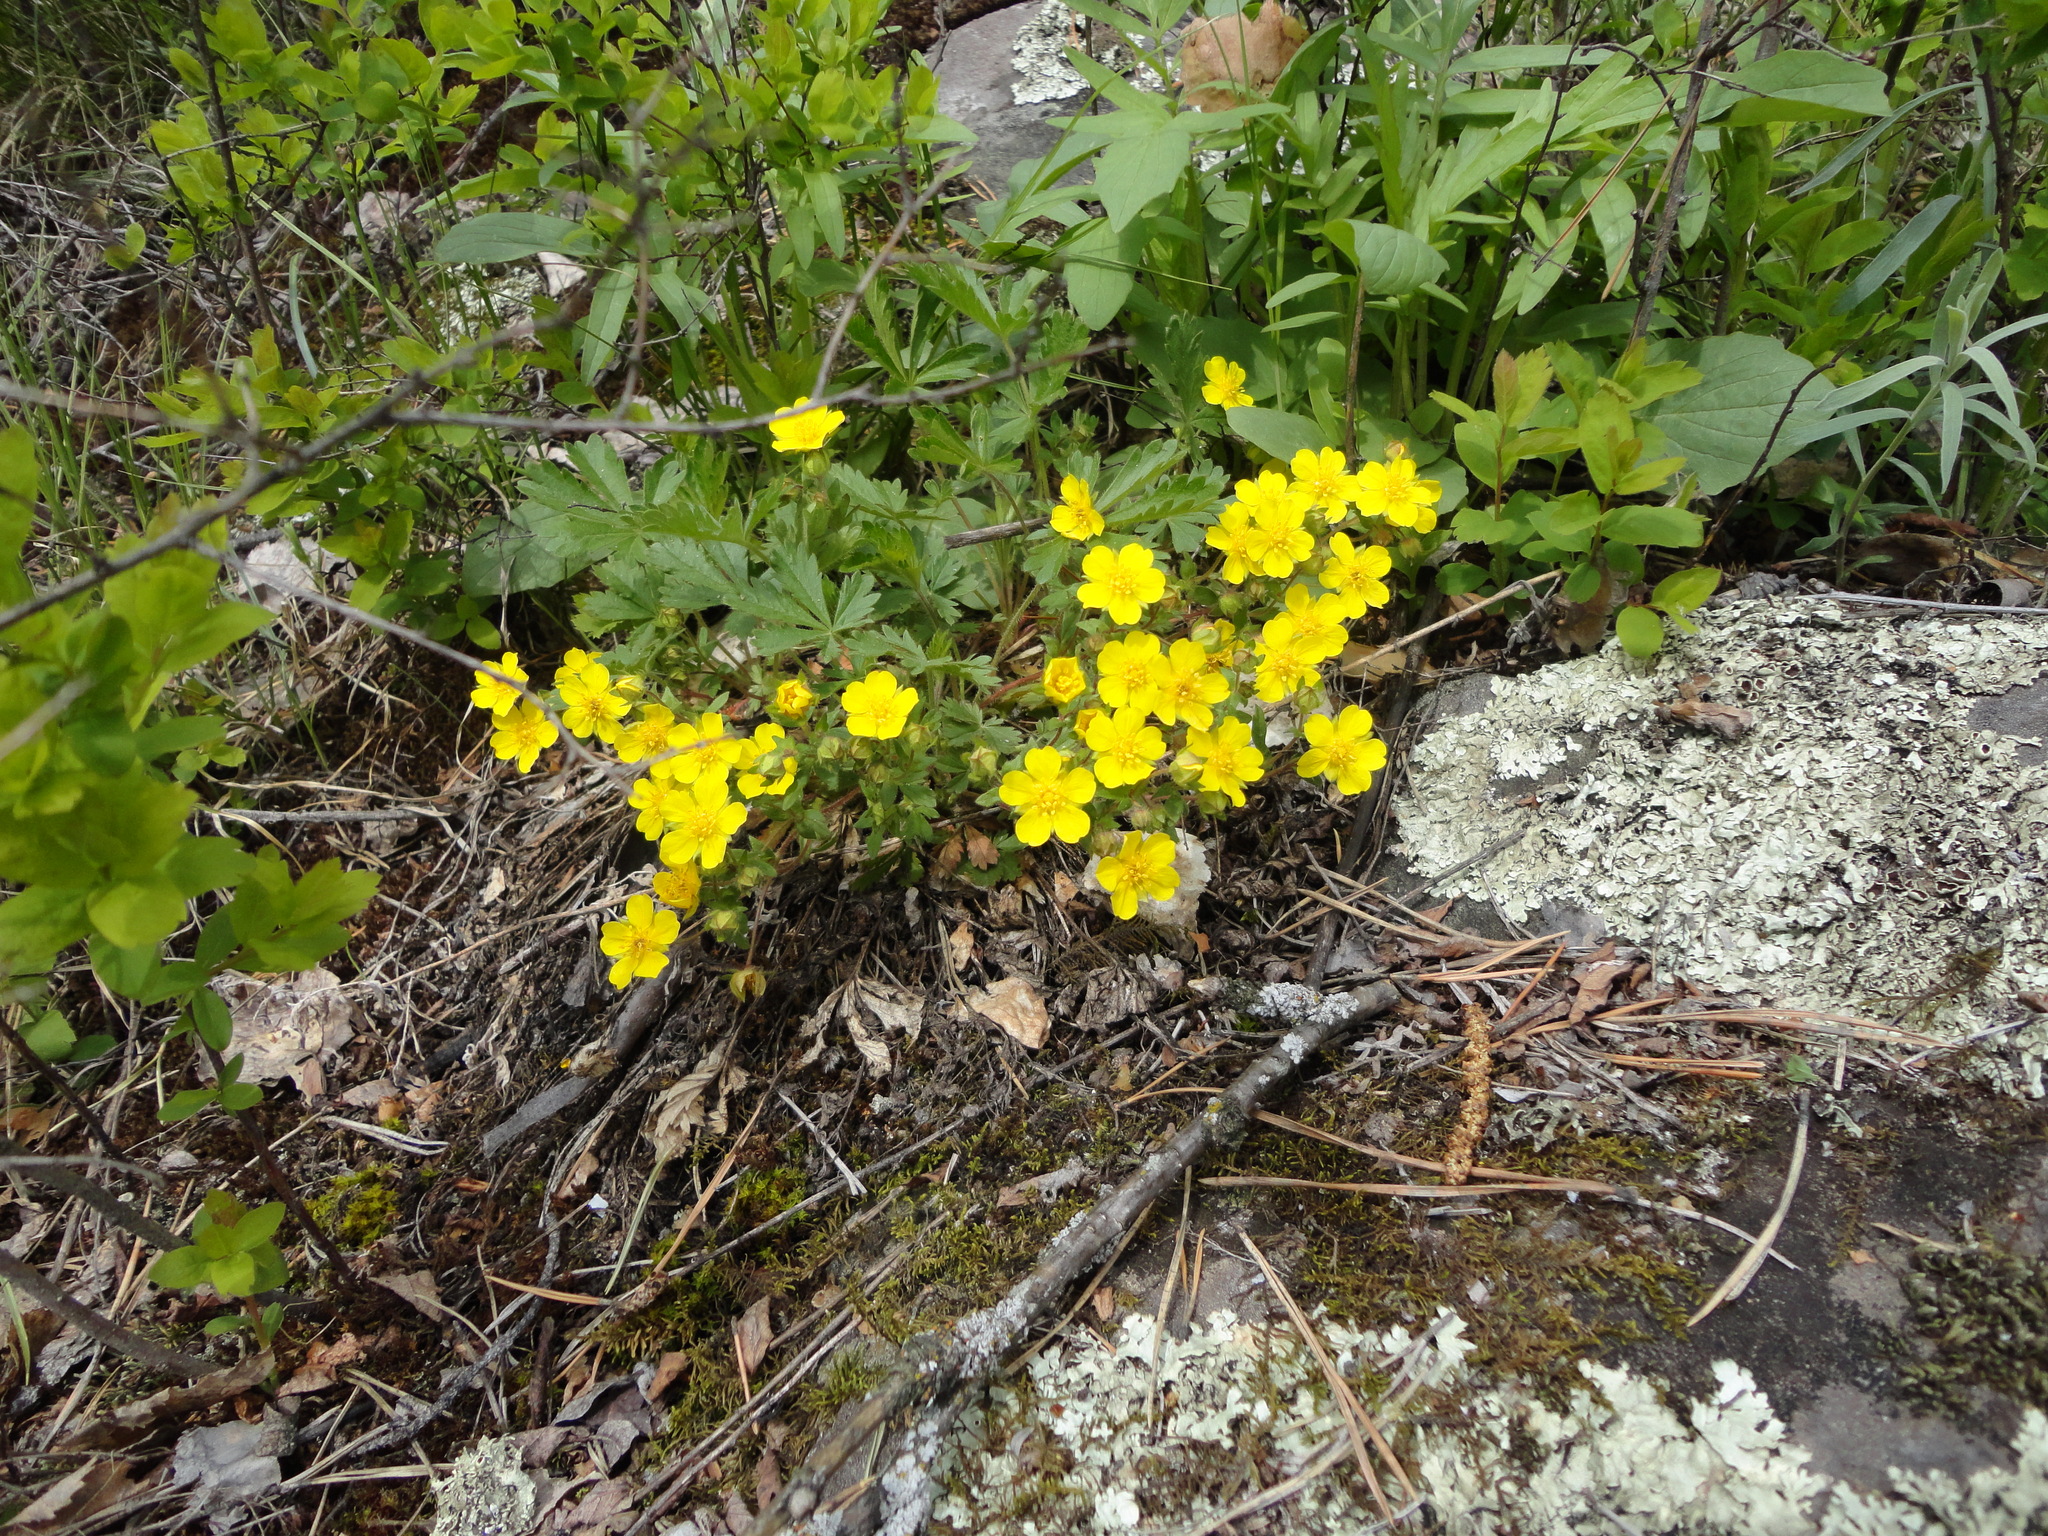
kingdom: Plantae
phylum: Tracheophyta
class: Magnoliopsida
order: Rosales
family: Rosaceae
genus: Potentilla
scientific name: Potentilla humifusa
